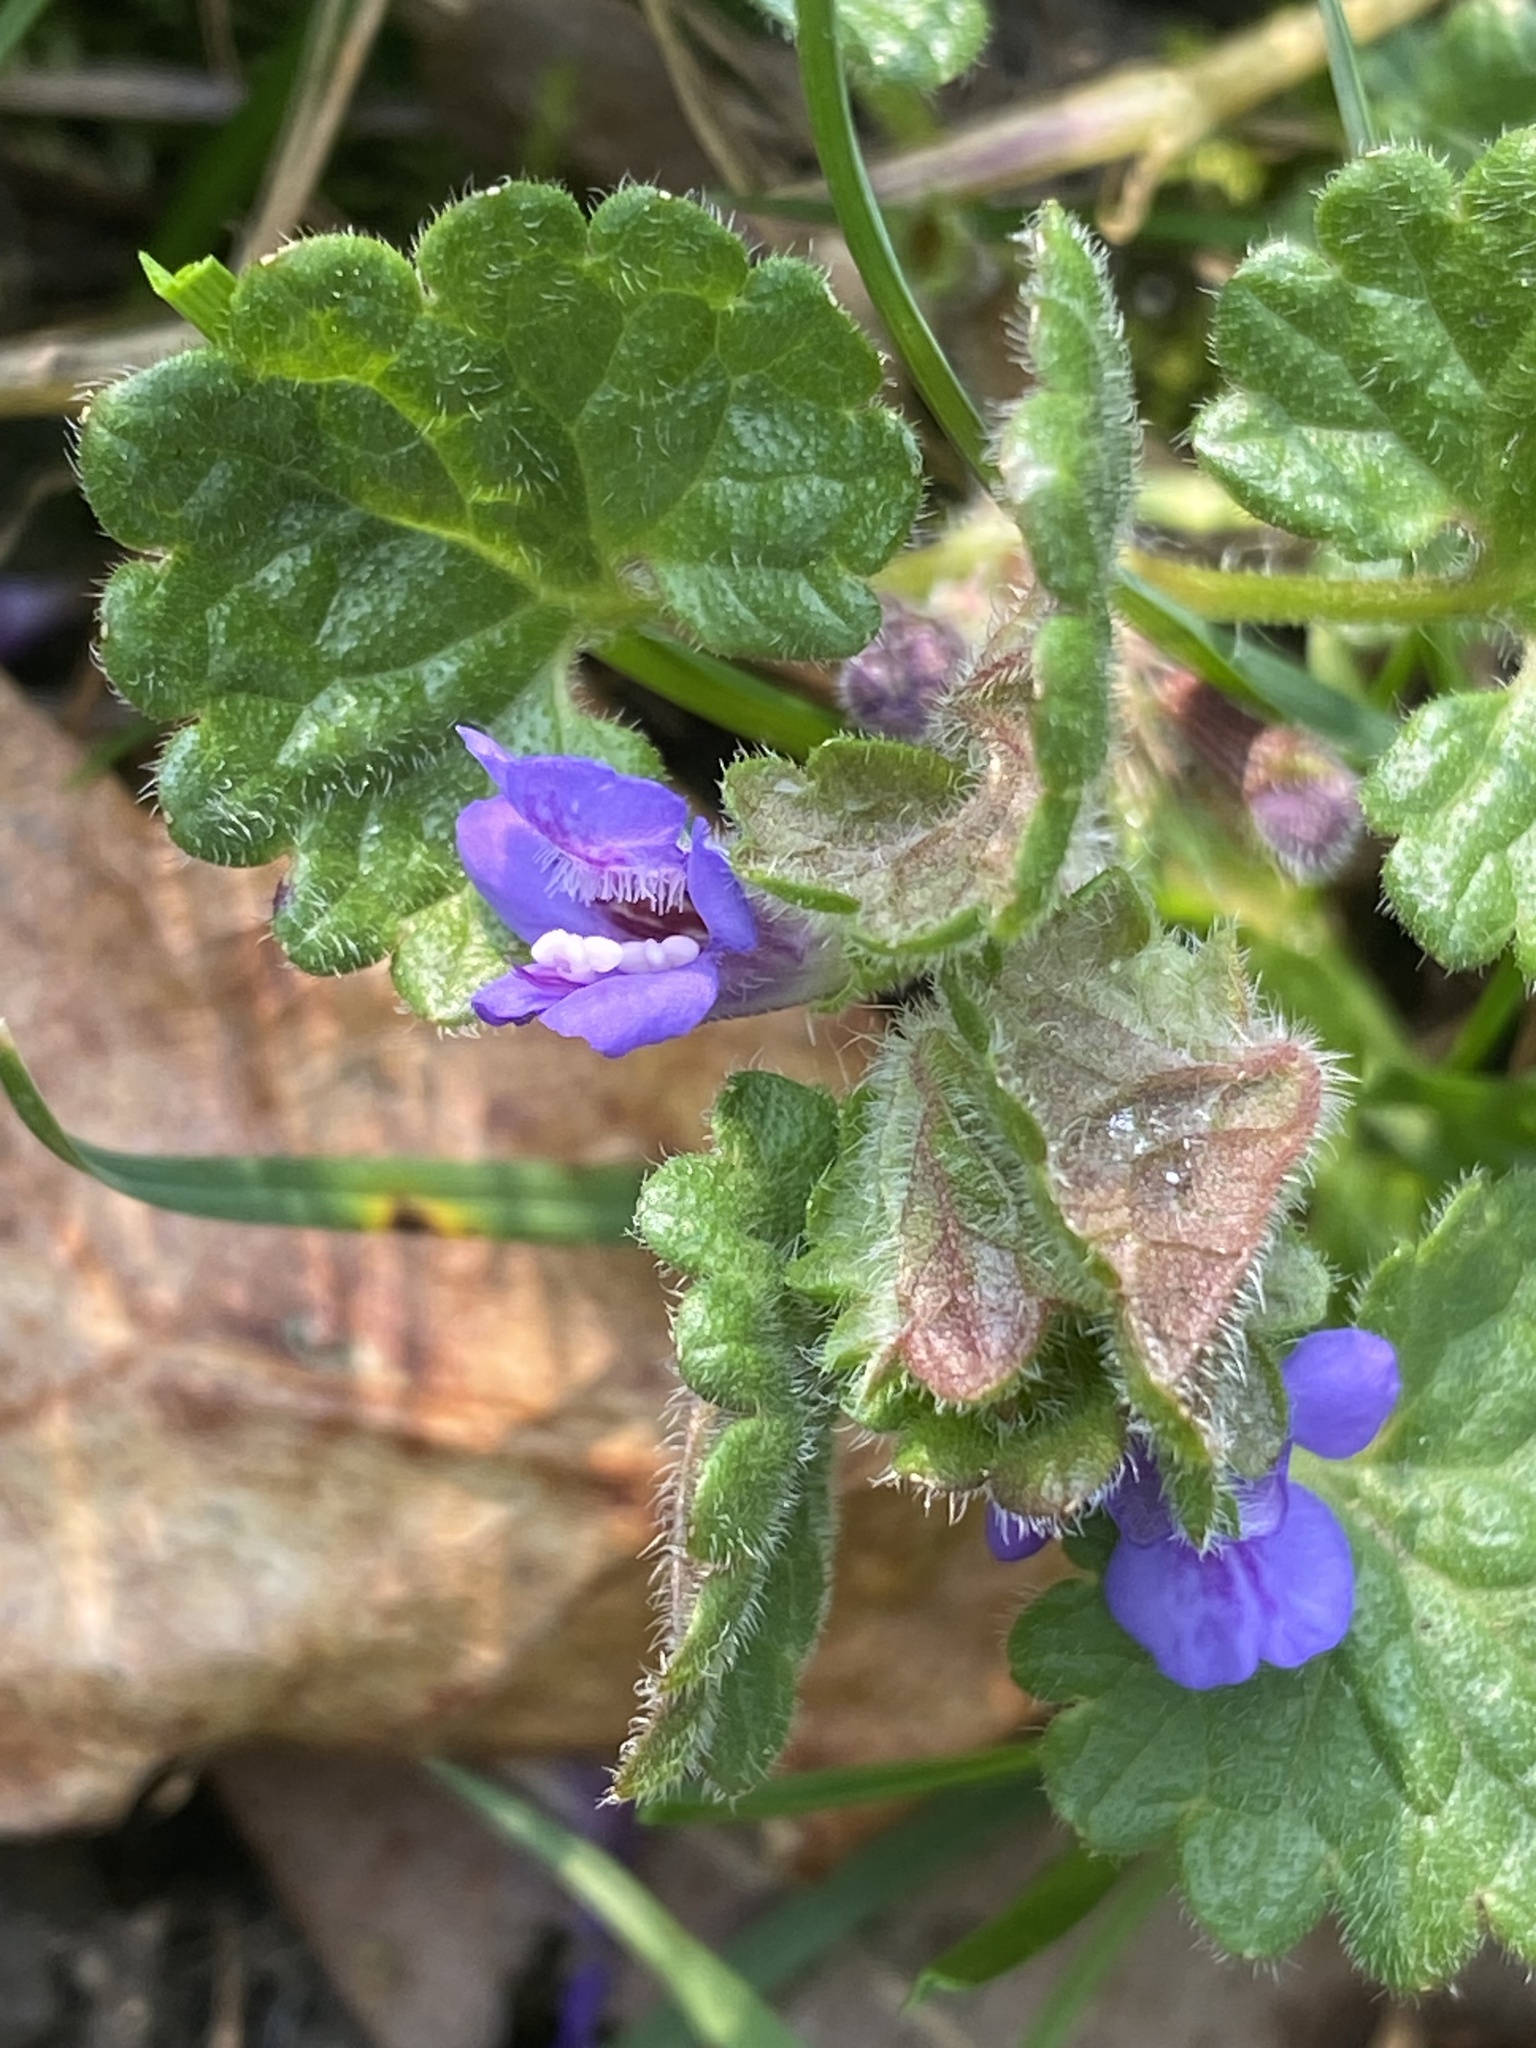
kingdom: Plantae
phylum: Tracheophyta
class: Magnoliopsida
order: Lamiales
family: Lamiaceae
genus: Glechoma
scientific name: Glechoma hederacea
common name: Ground ivy
